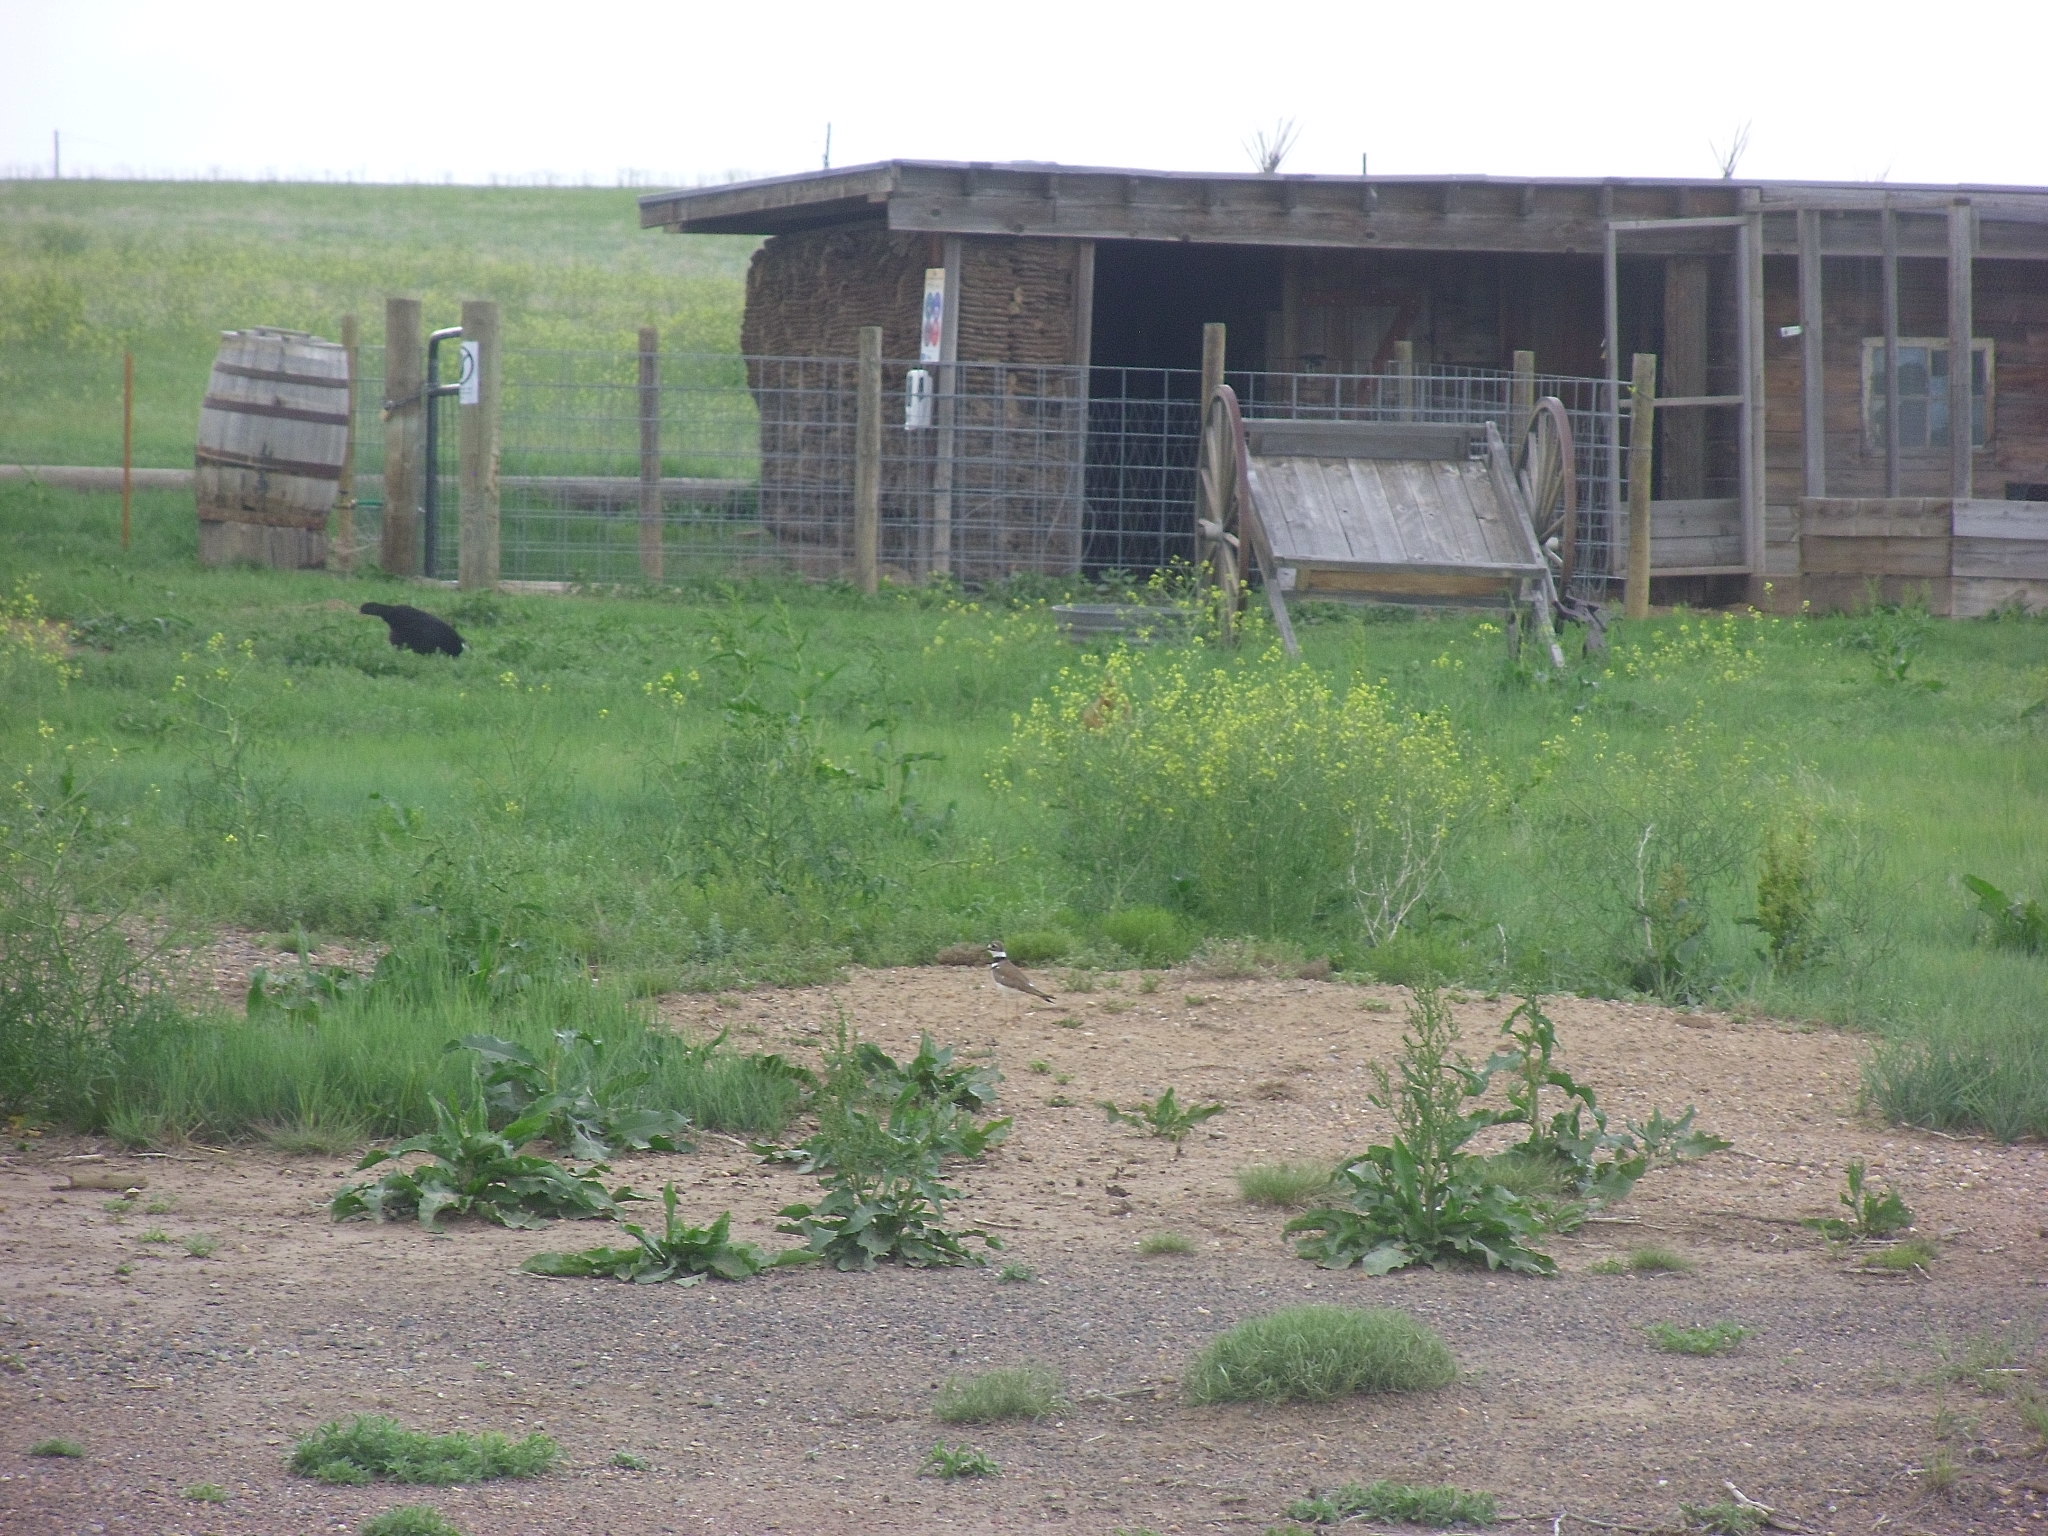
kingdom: Animalia
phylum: Chordata
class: Aves
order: Charadriiformes
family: Charadriidae
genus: Charadrius
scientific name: Charadrius vociferus
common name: Killdeer
